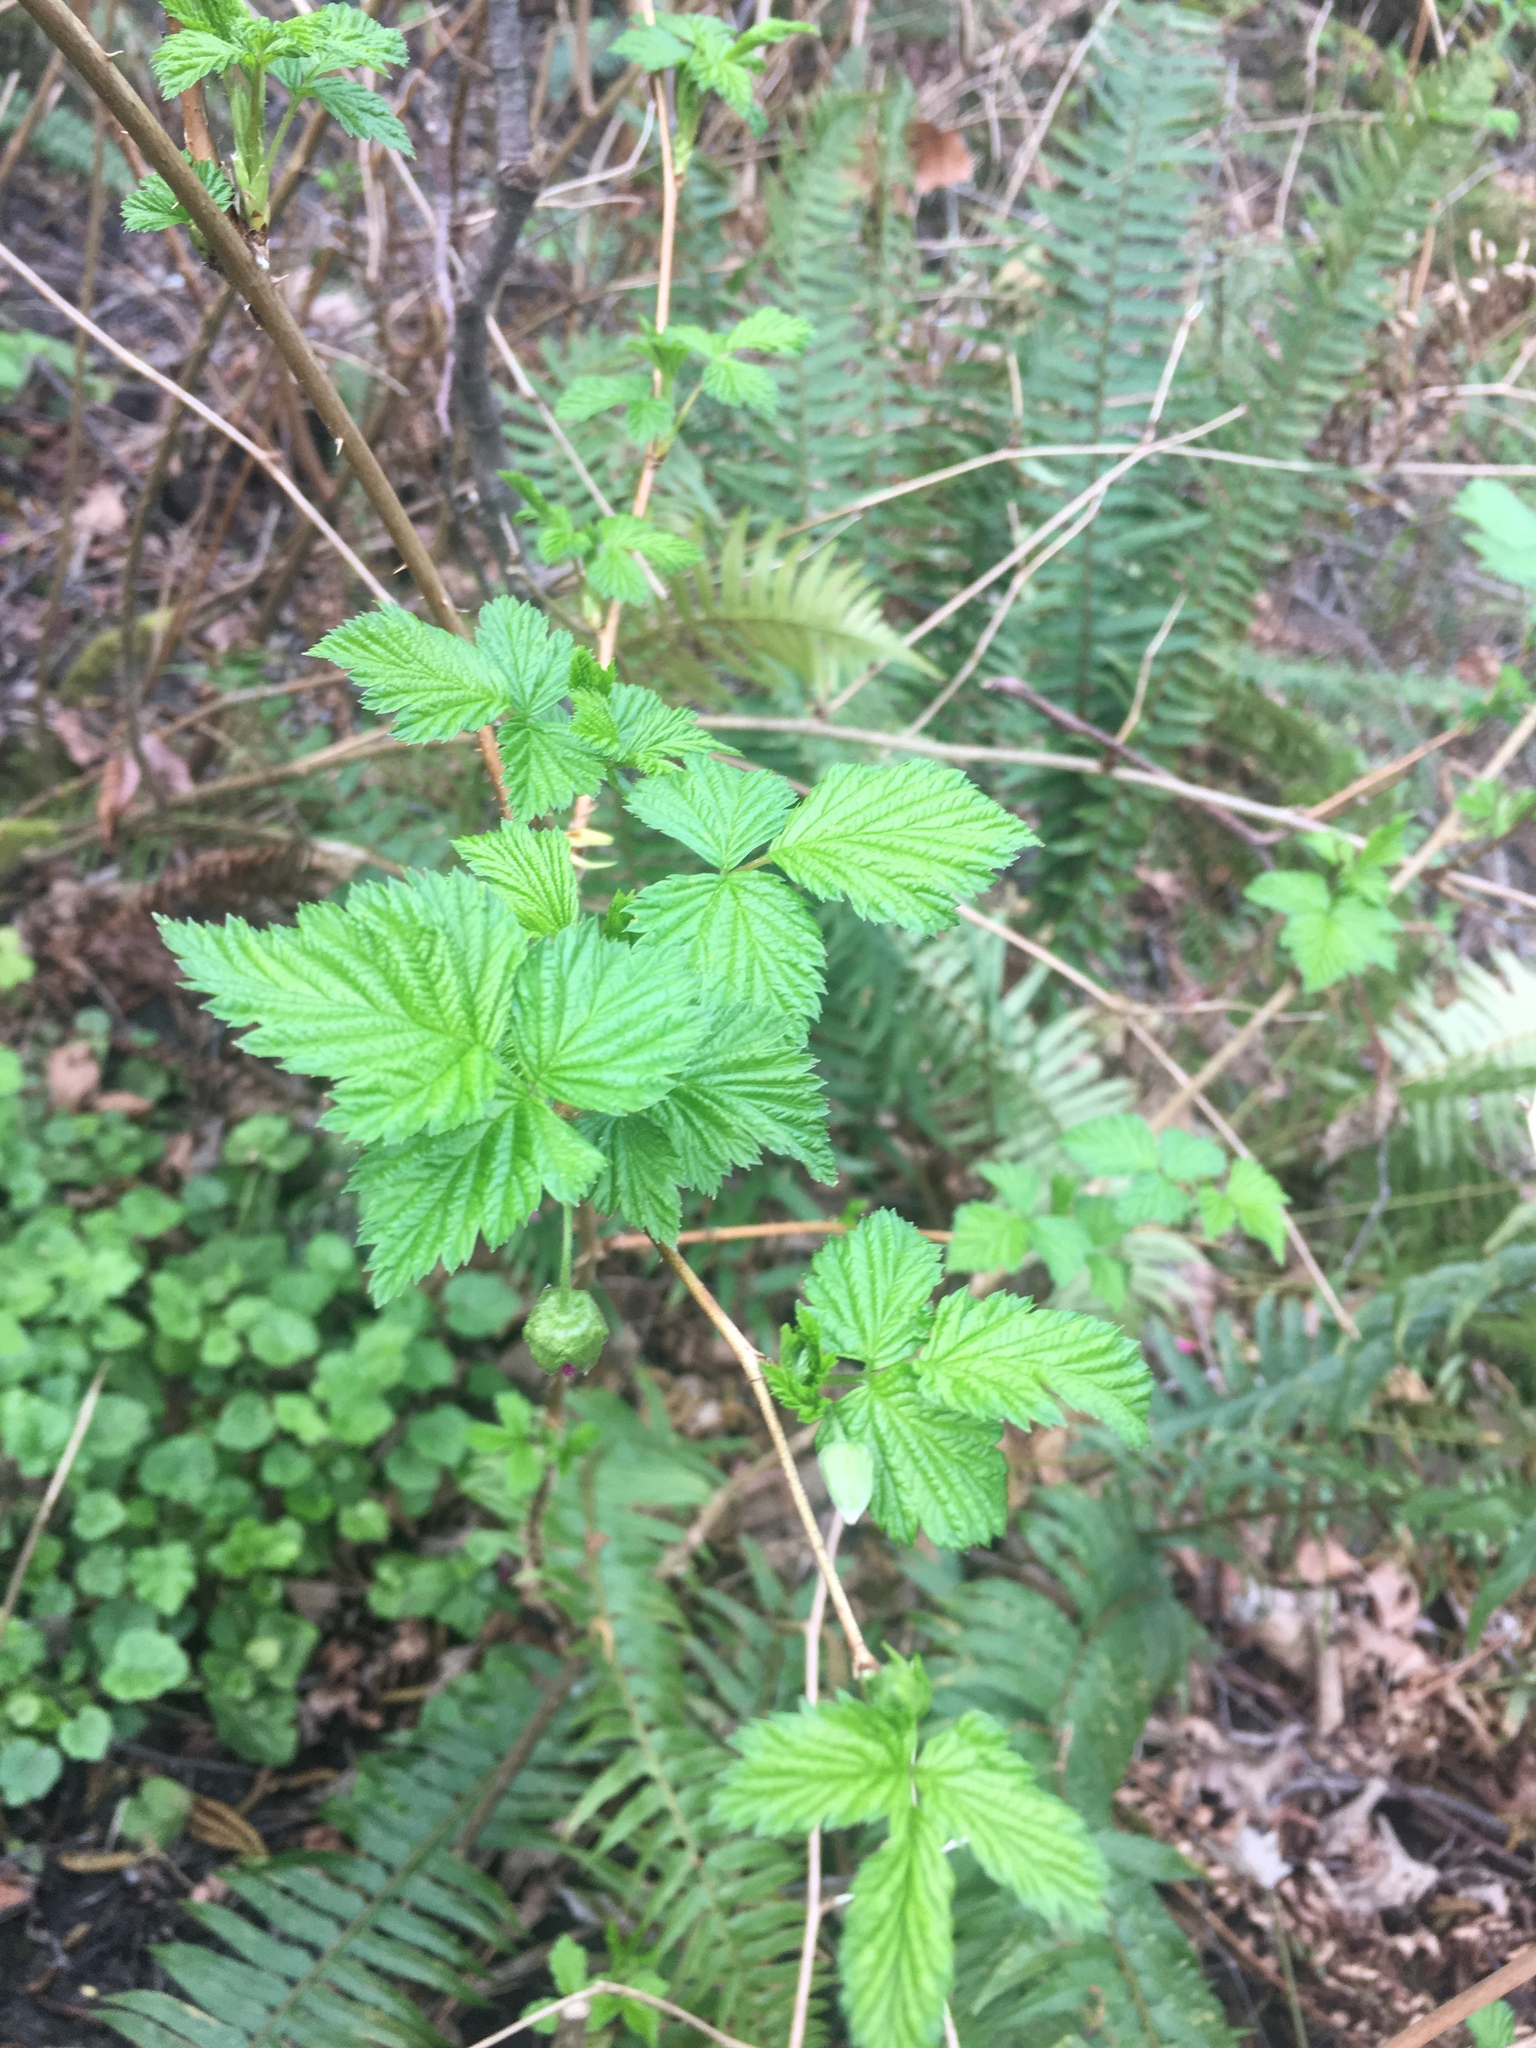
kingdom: Plantae
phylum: Tracheophyta
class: Magnoliopsida
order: Rosales
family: Rosaceae
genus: Rubus
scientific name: Rubus spectabilis
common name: Salmonberry
